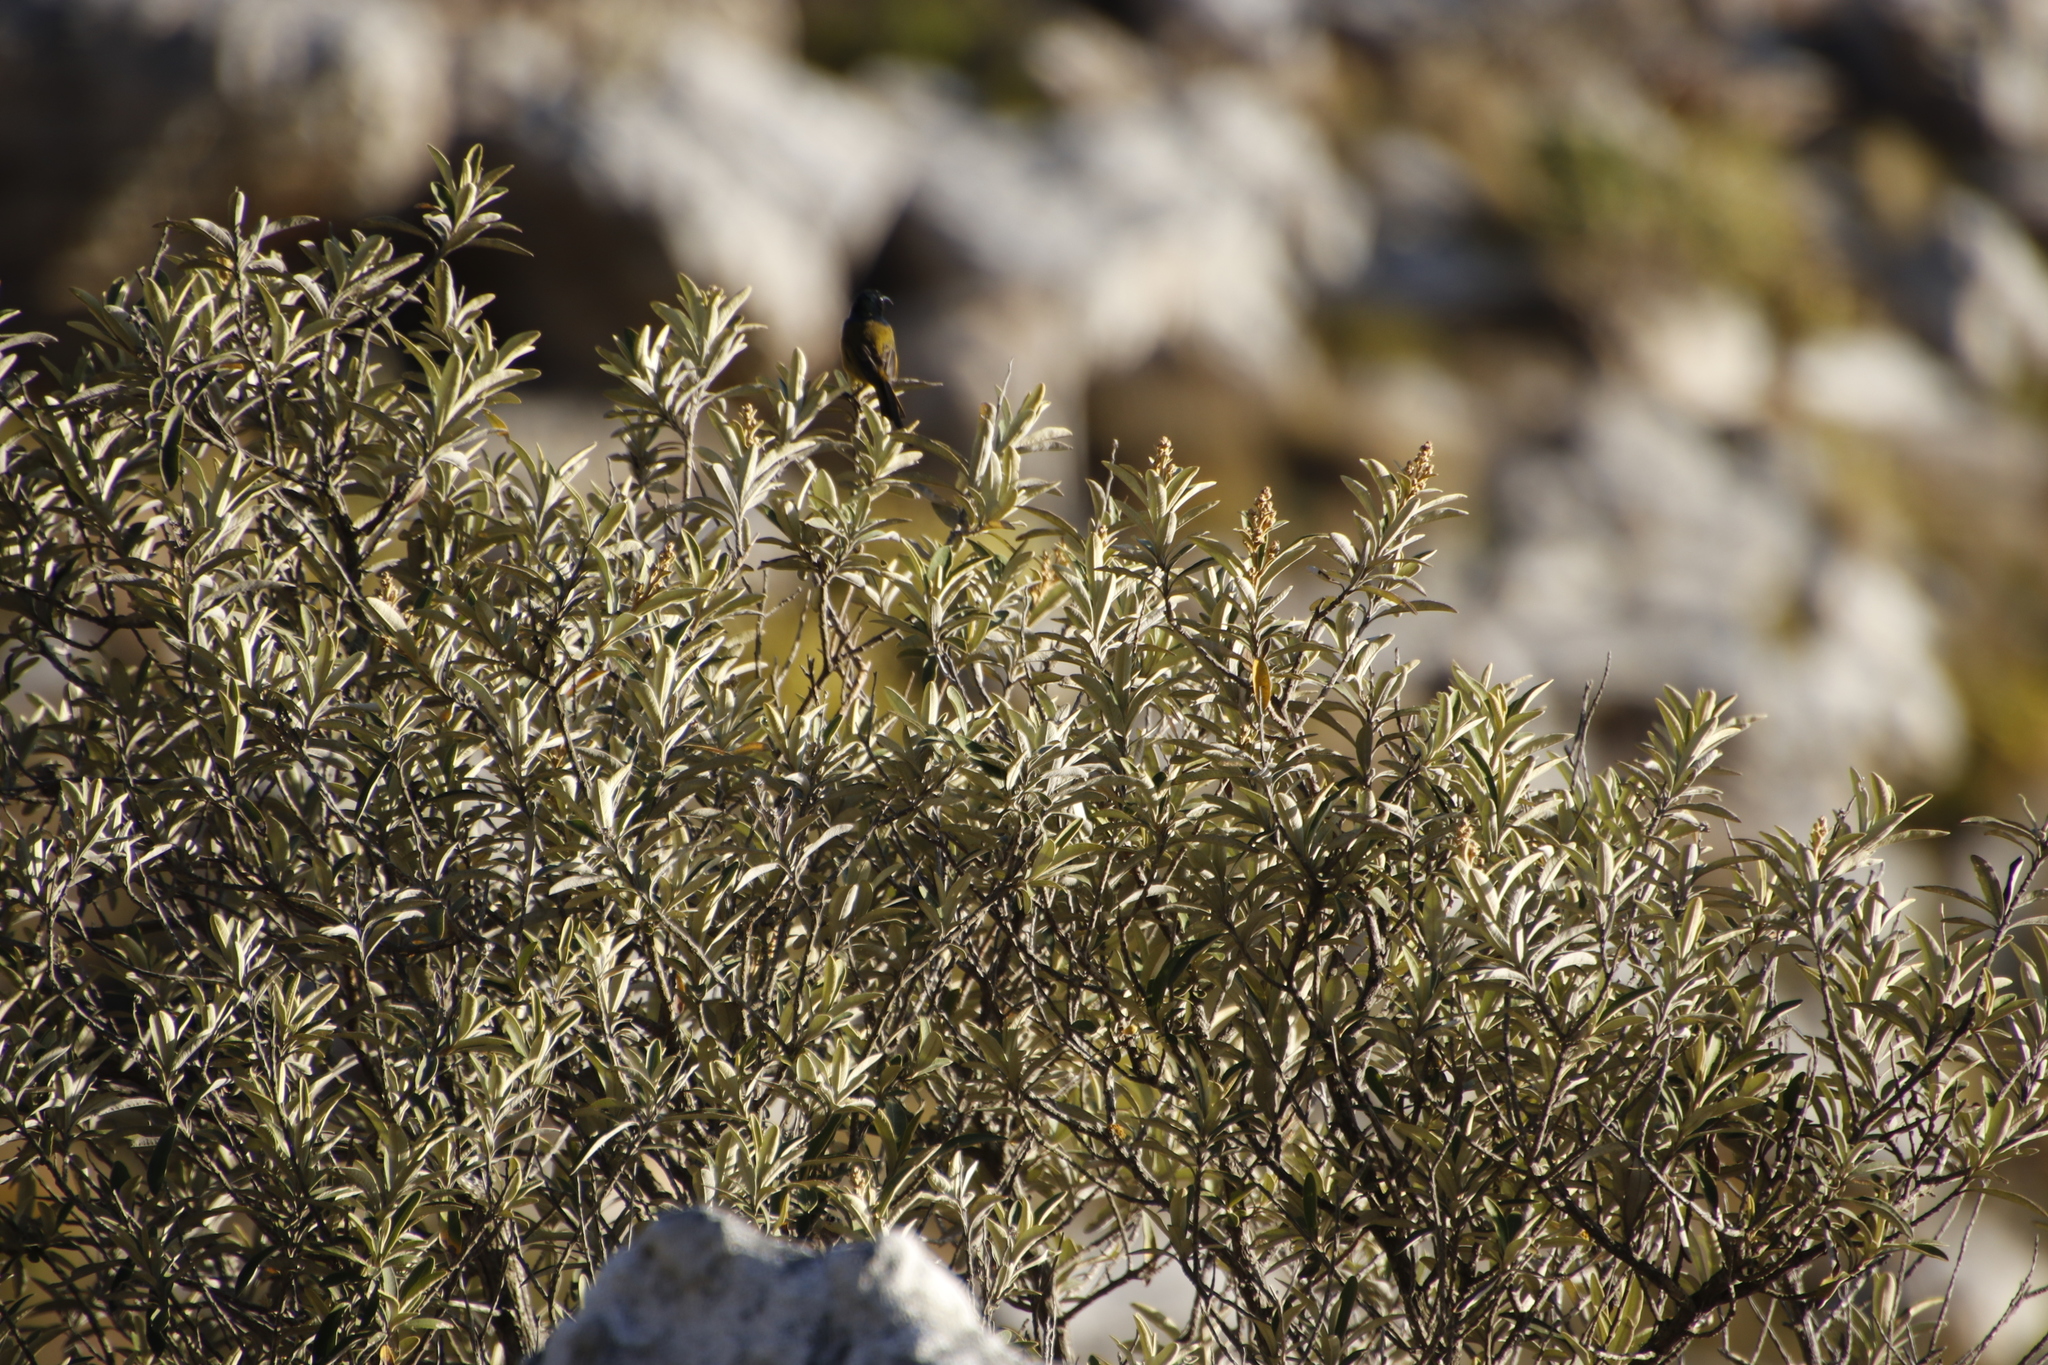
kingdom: Plantae
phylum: Tracheophyta
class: Magnoliopsida
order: Asterales
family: Asteraceae
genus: Tarchonanthus
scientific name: Tarchonanthus littoralis
